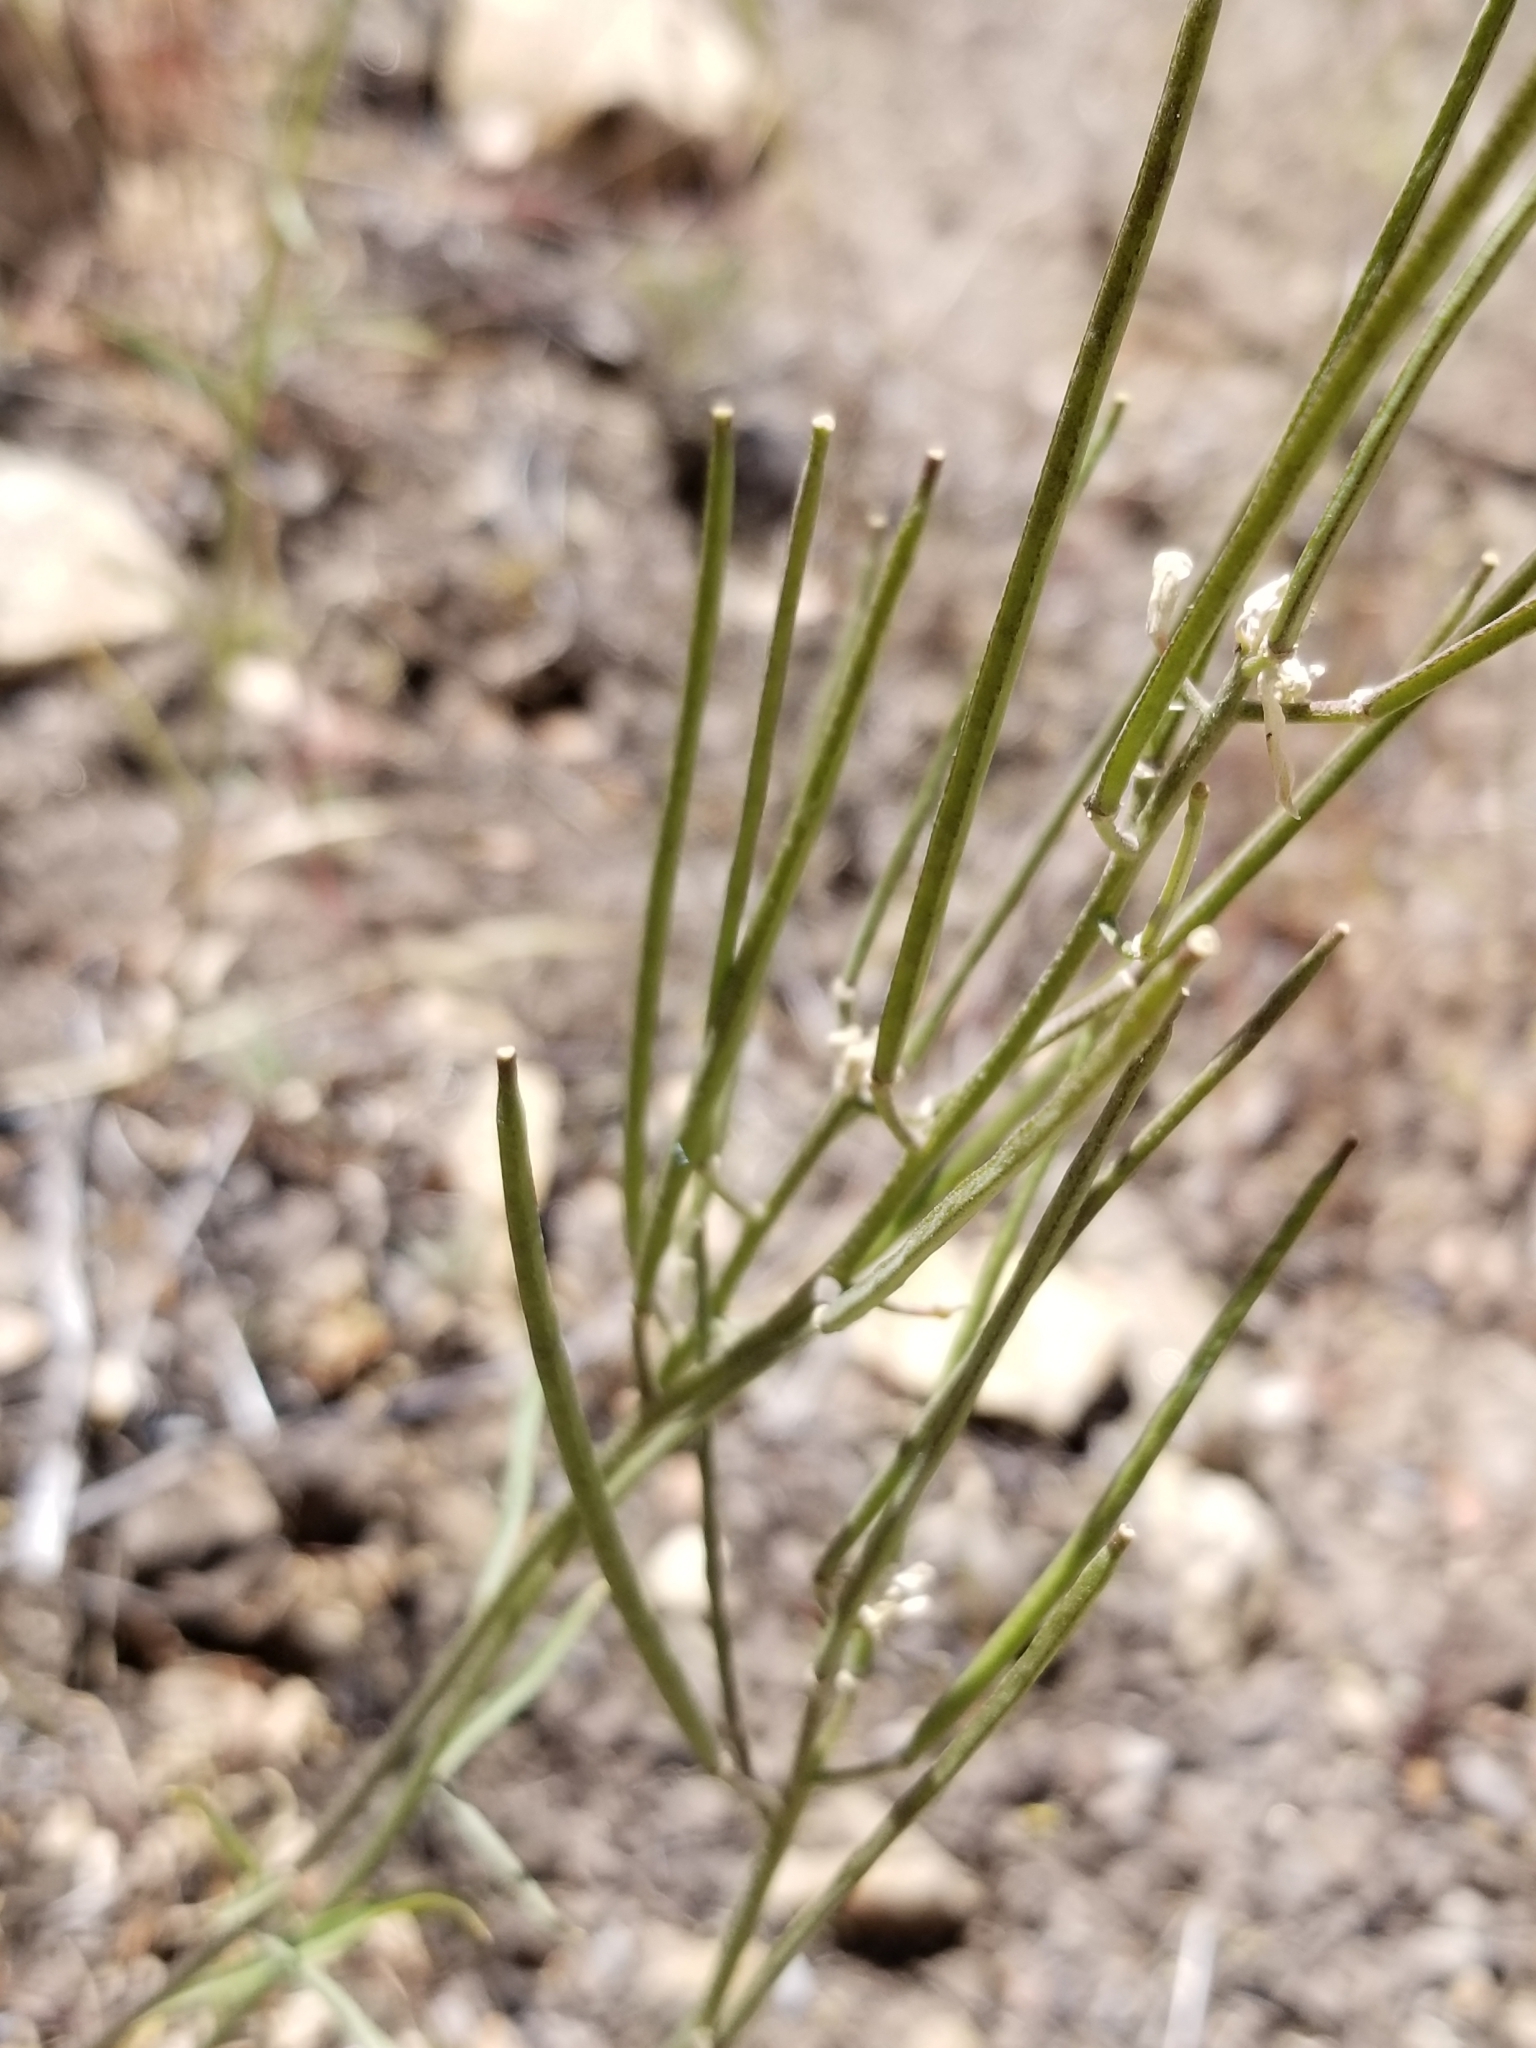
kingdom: Plantae
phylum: Tracheophyta
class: Magnoliopsida
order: Brassicales
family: Brassicaceae
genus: Erysimum
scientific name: Erysimum capitatum
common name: Western wallflower
